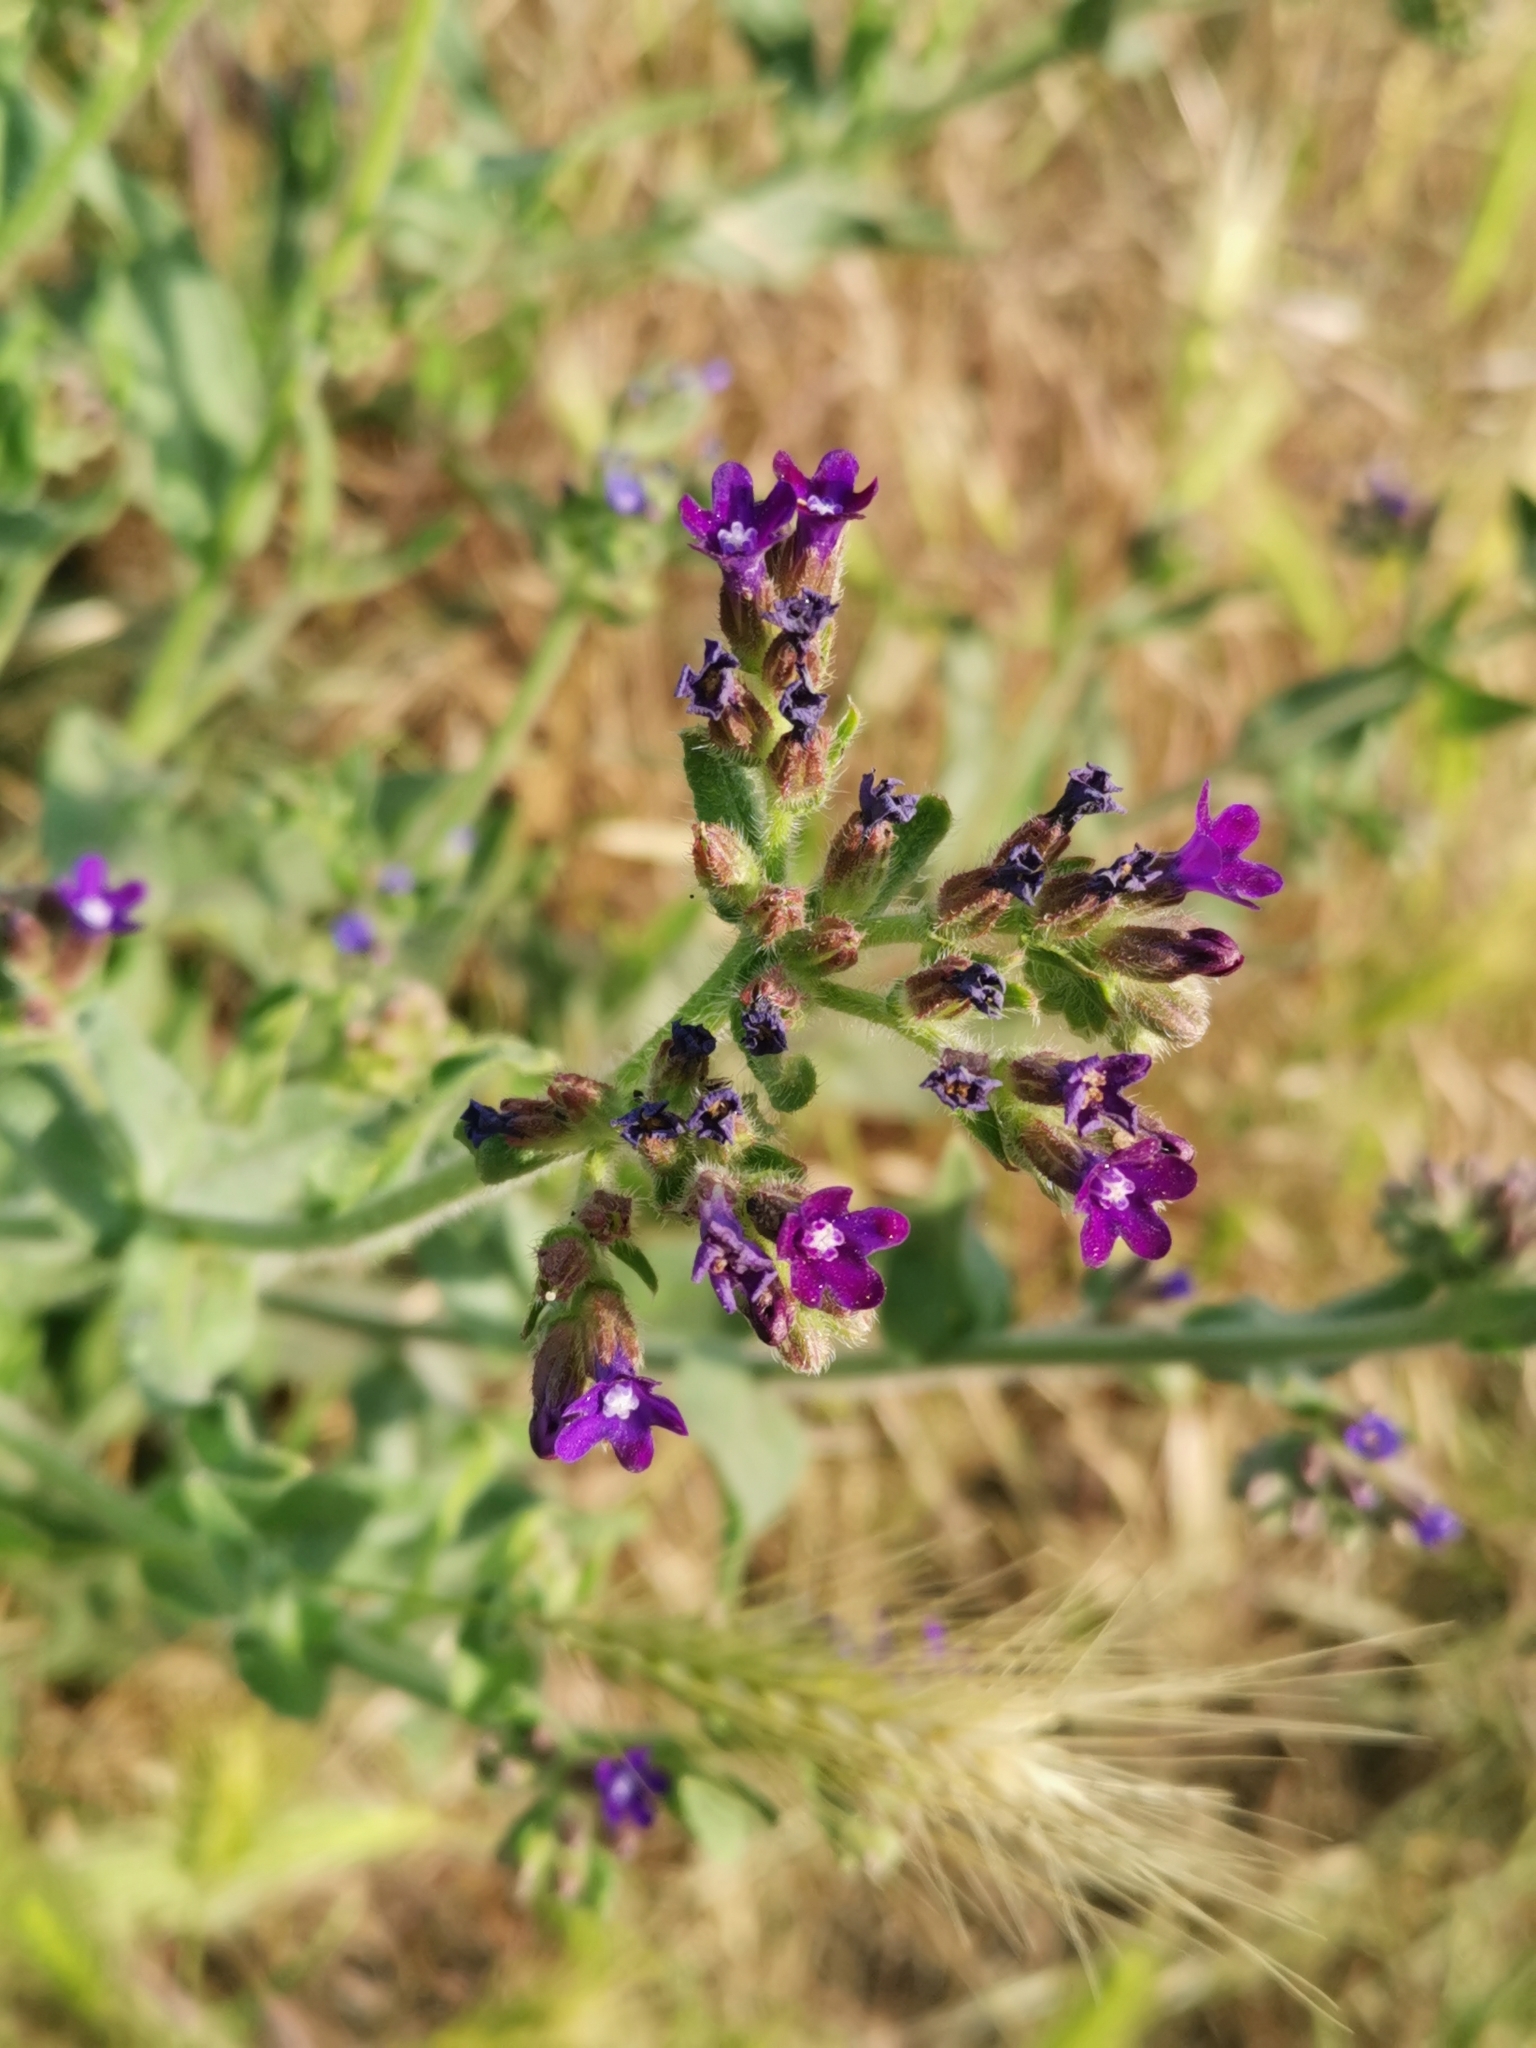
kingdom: Plantae
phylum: Tracheophyta
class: Magnoliopsida
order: Boraginales
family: Boraginaceae
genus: Anchusa
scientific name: Anchusa officinalis
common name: Alkanet
